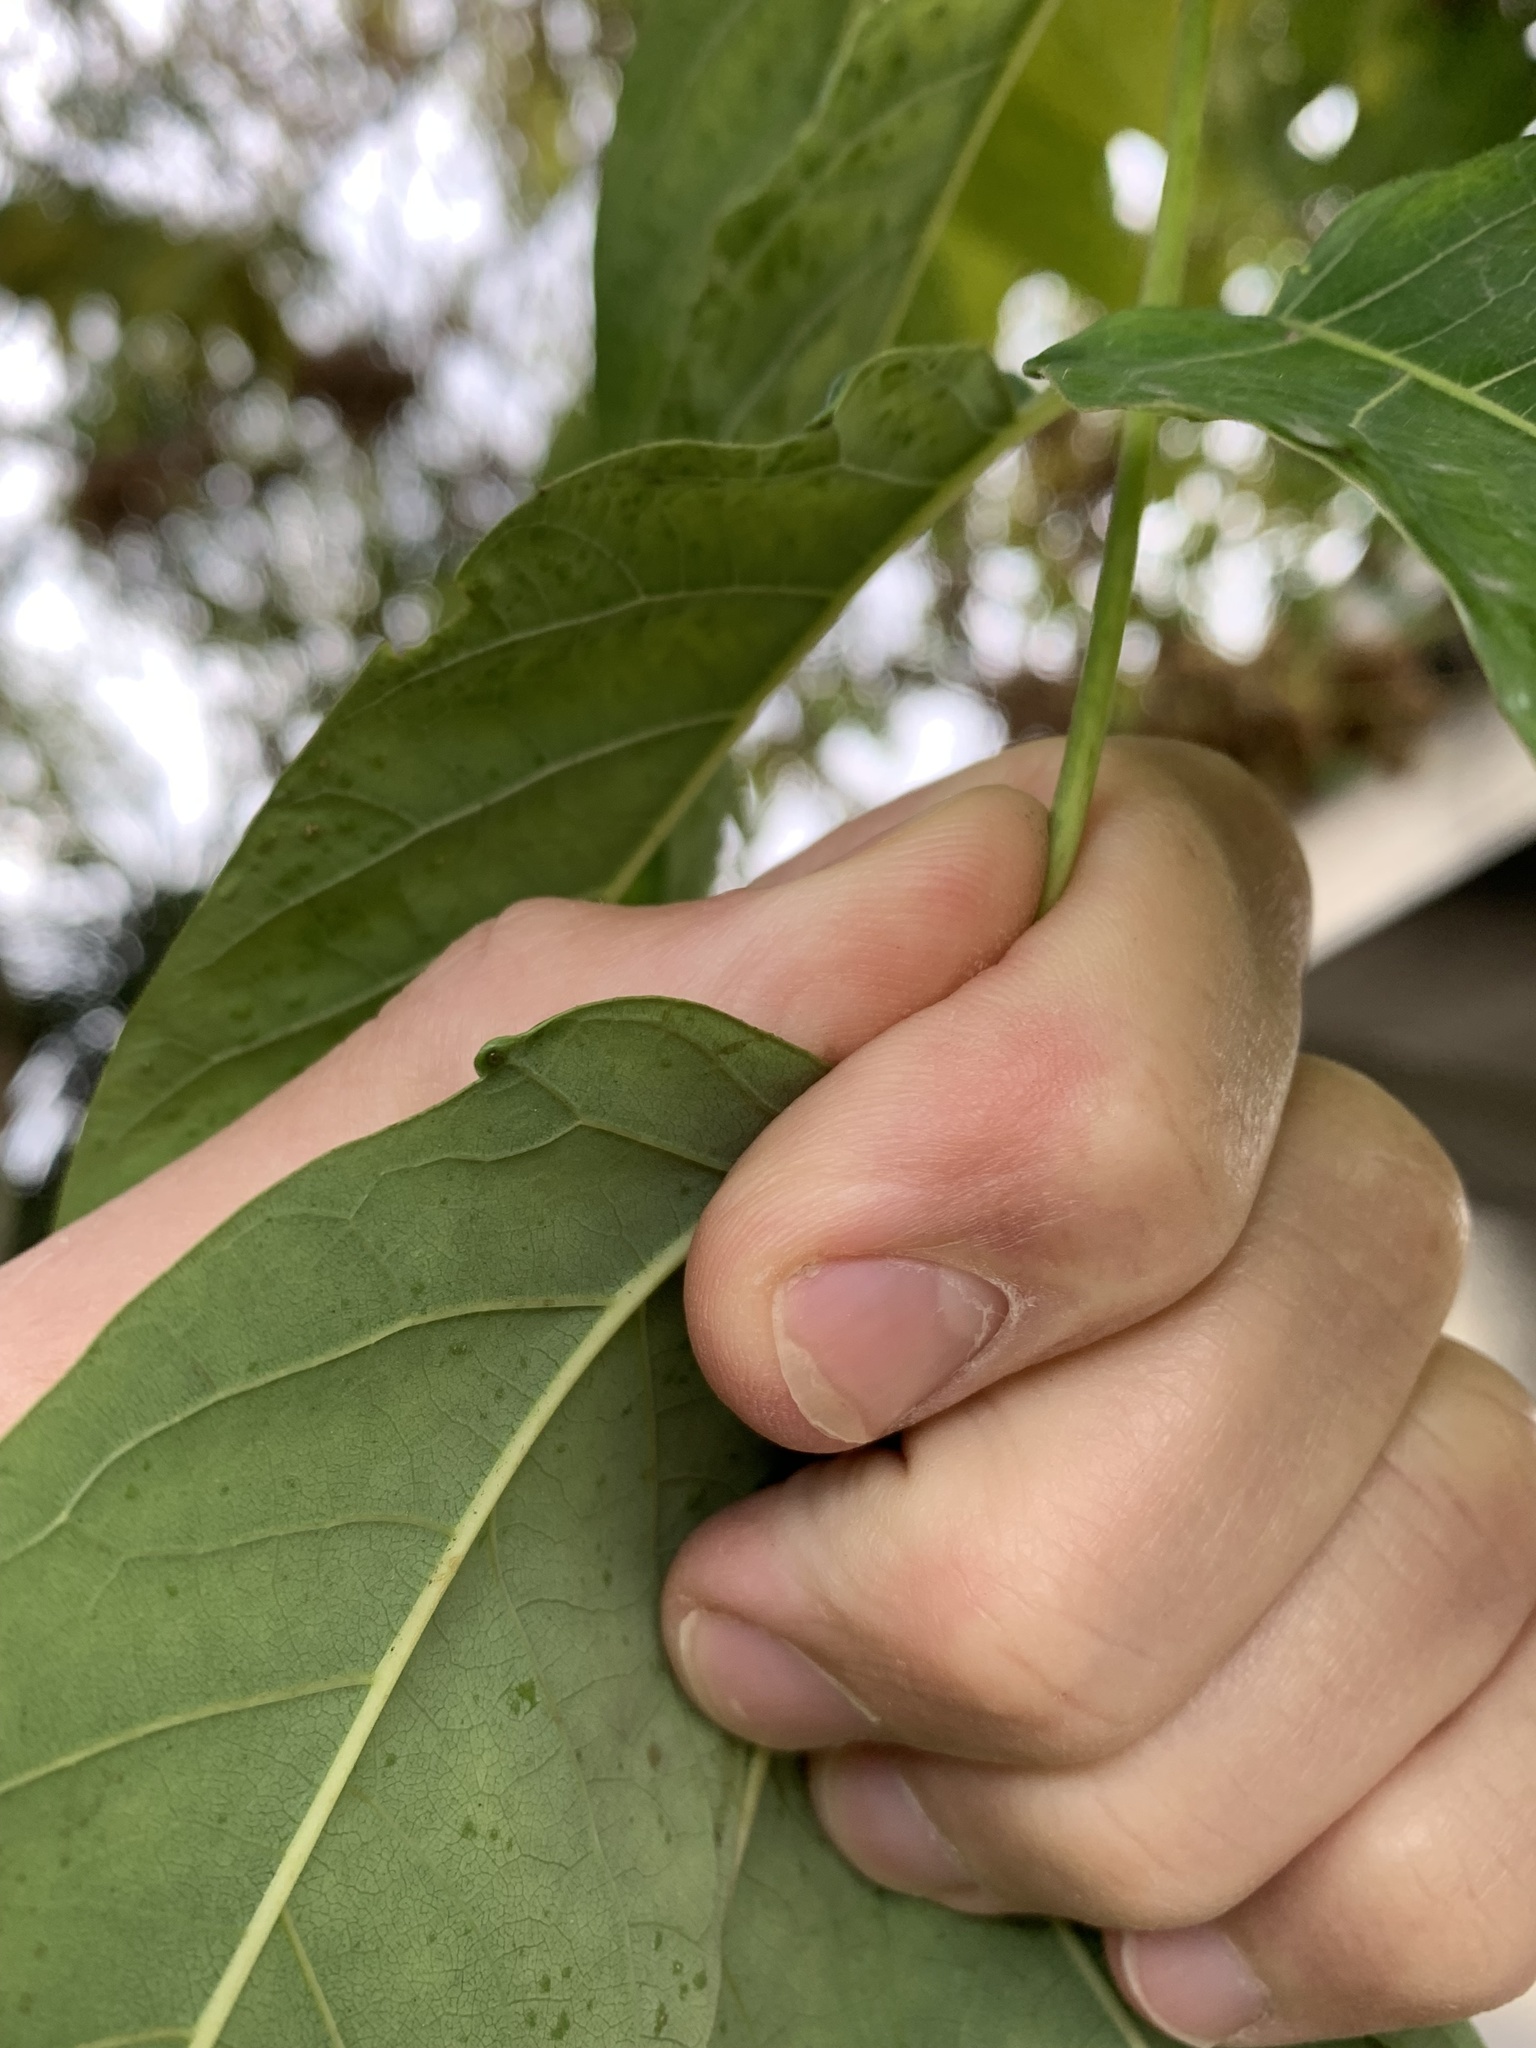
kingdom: Plantae
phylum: Tracheophyta
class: Magnoliopsida
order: Sapindales
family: Simaroubaceae
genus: Ailanthus
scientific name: Ailanthus altissima
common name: Tree-of-heaven
